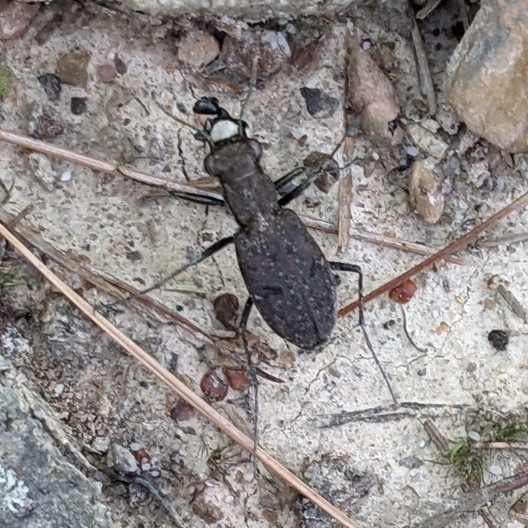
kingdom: Animalia
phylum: Arthropoda
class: Insecta
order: Coleoptera
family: Carabidae
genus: Cylindera
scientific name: Cylindera unipunctata
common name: One-spotted tiger beetle
